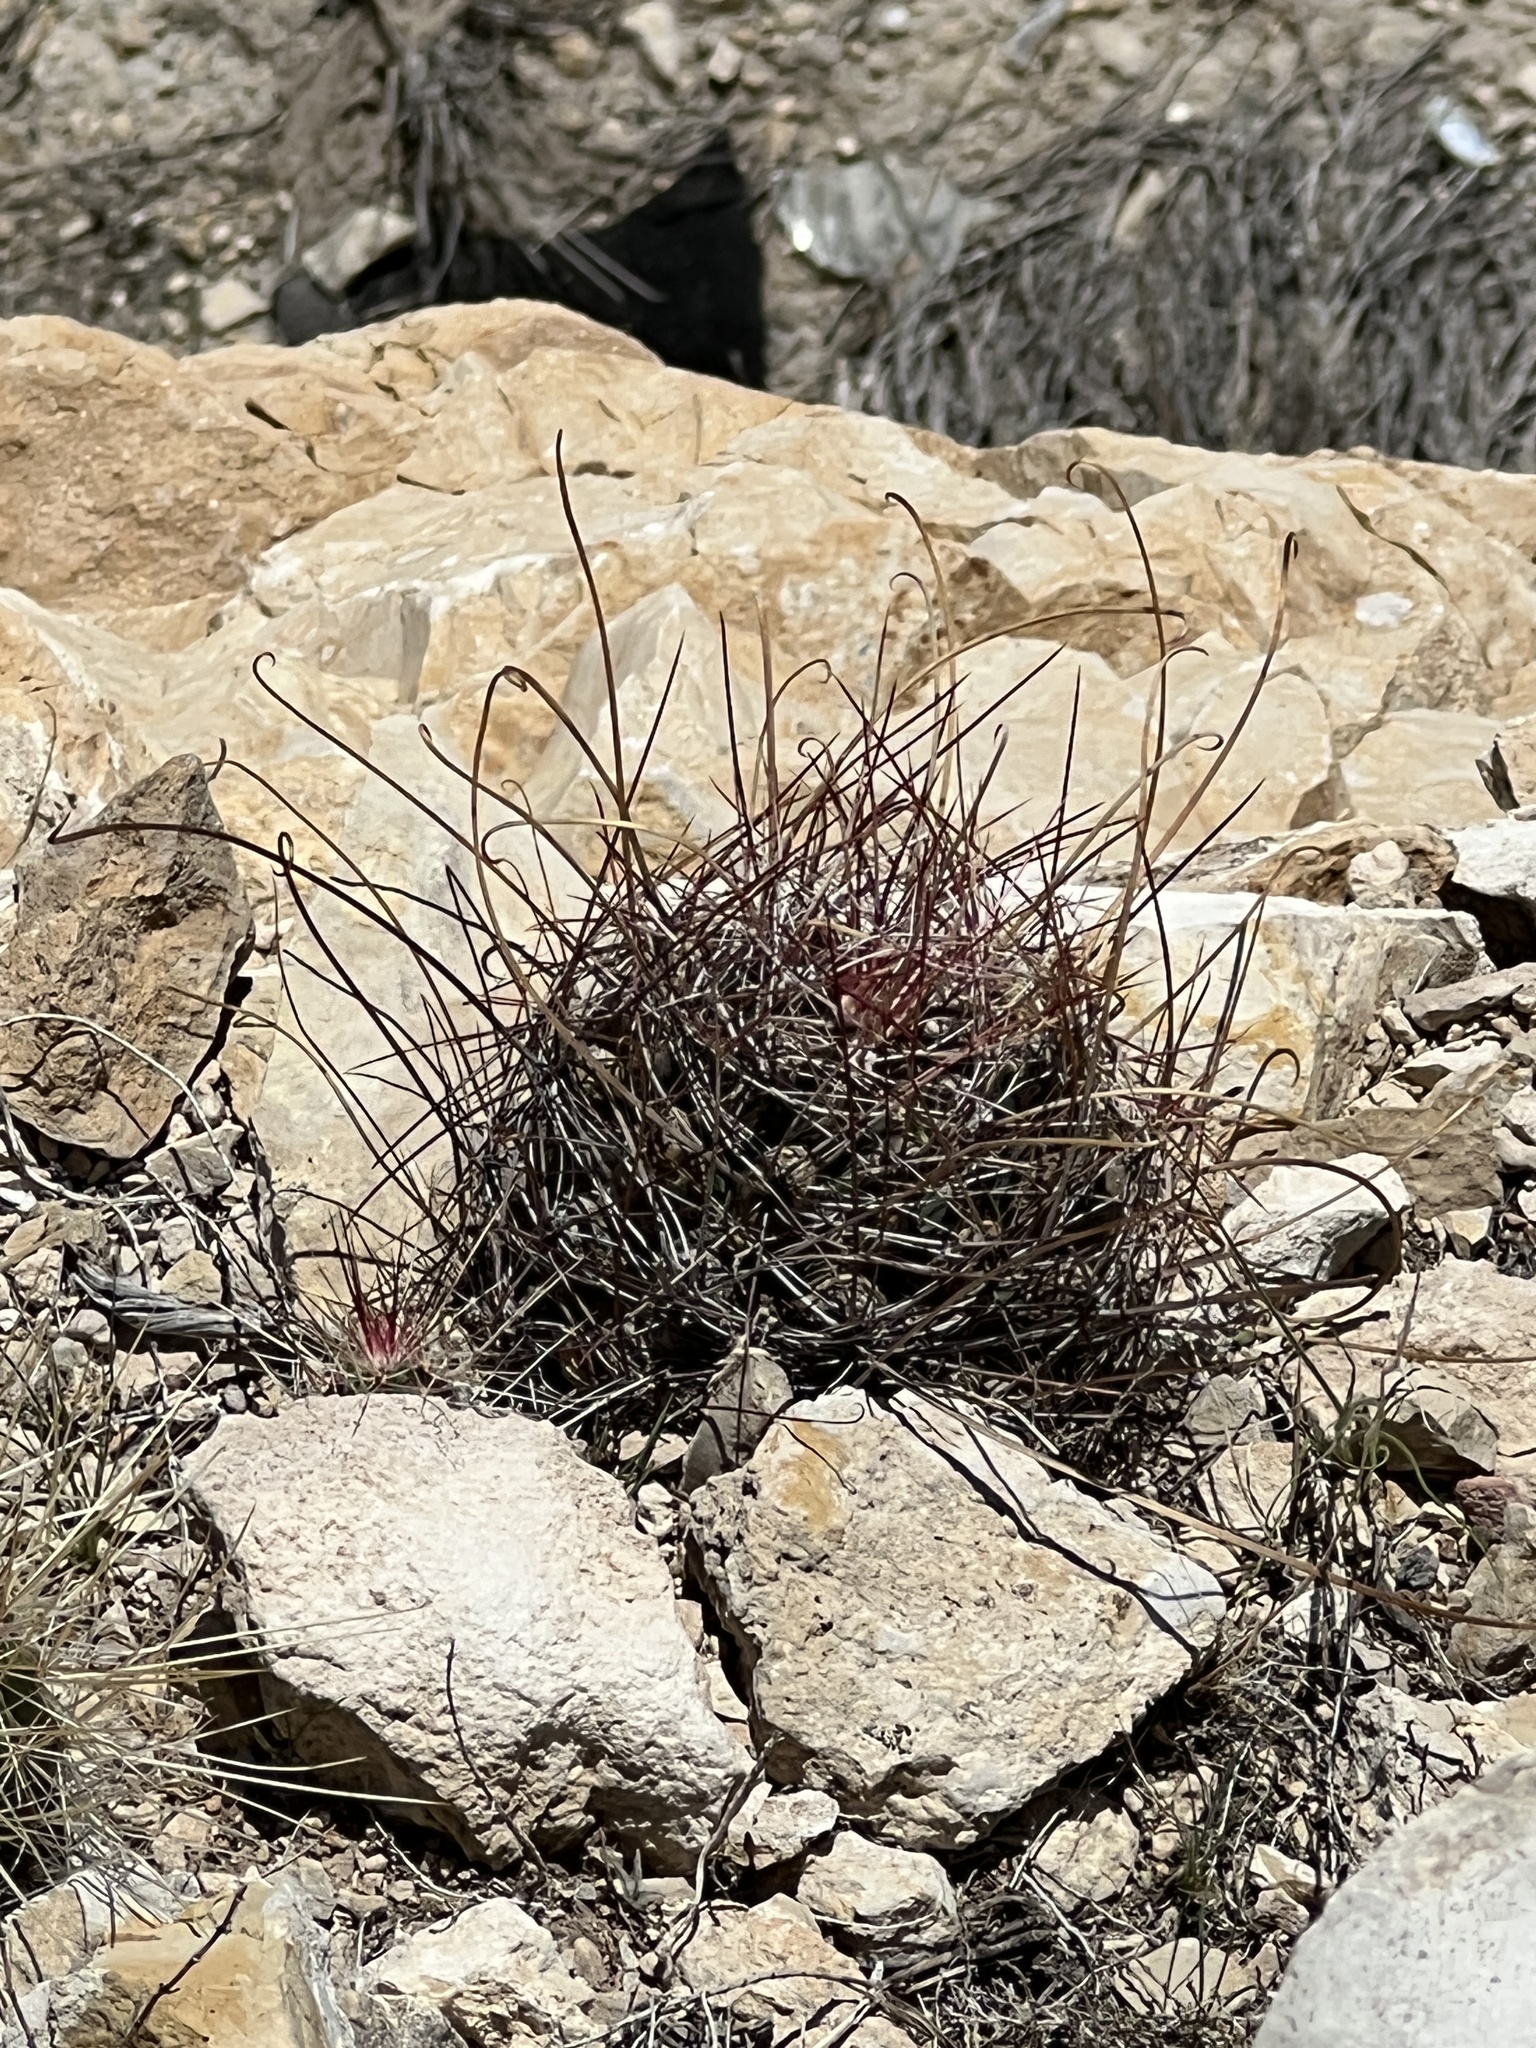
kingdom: Plantae
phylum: Tracheophyta
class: Magnoliopsida
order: Caryophyllales
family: Cactaceae
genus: Bisnaga
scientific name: Bisnaga hamatacantha
